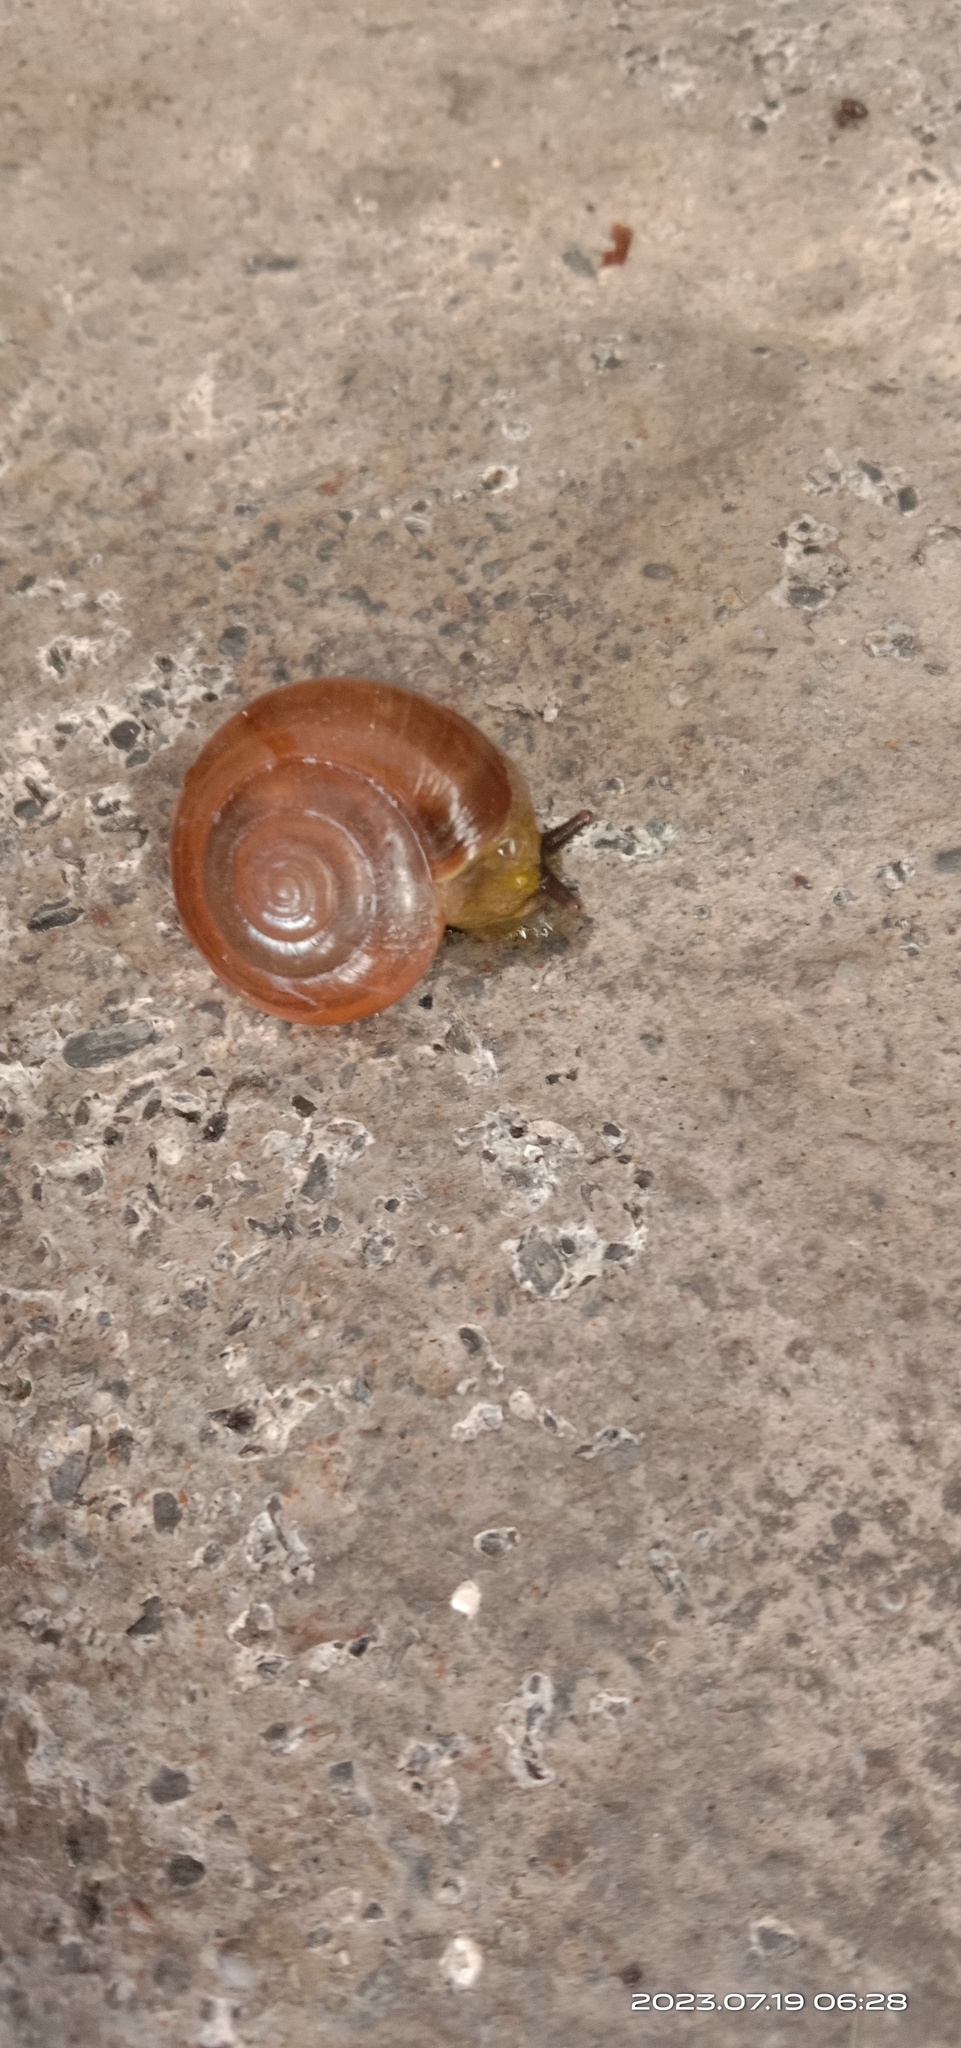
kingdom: Animalia
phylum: Mollusca
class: Gastropoda
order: Stylommatophora
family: Ariophantidae
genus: Macrochlamys
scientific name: Macrochlamys hippocastaneum
